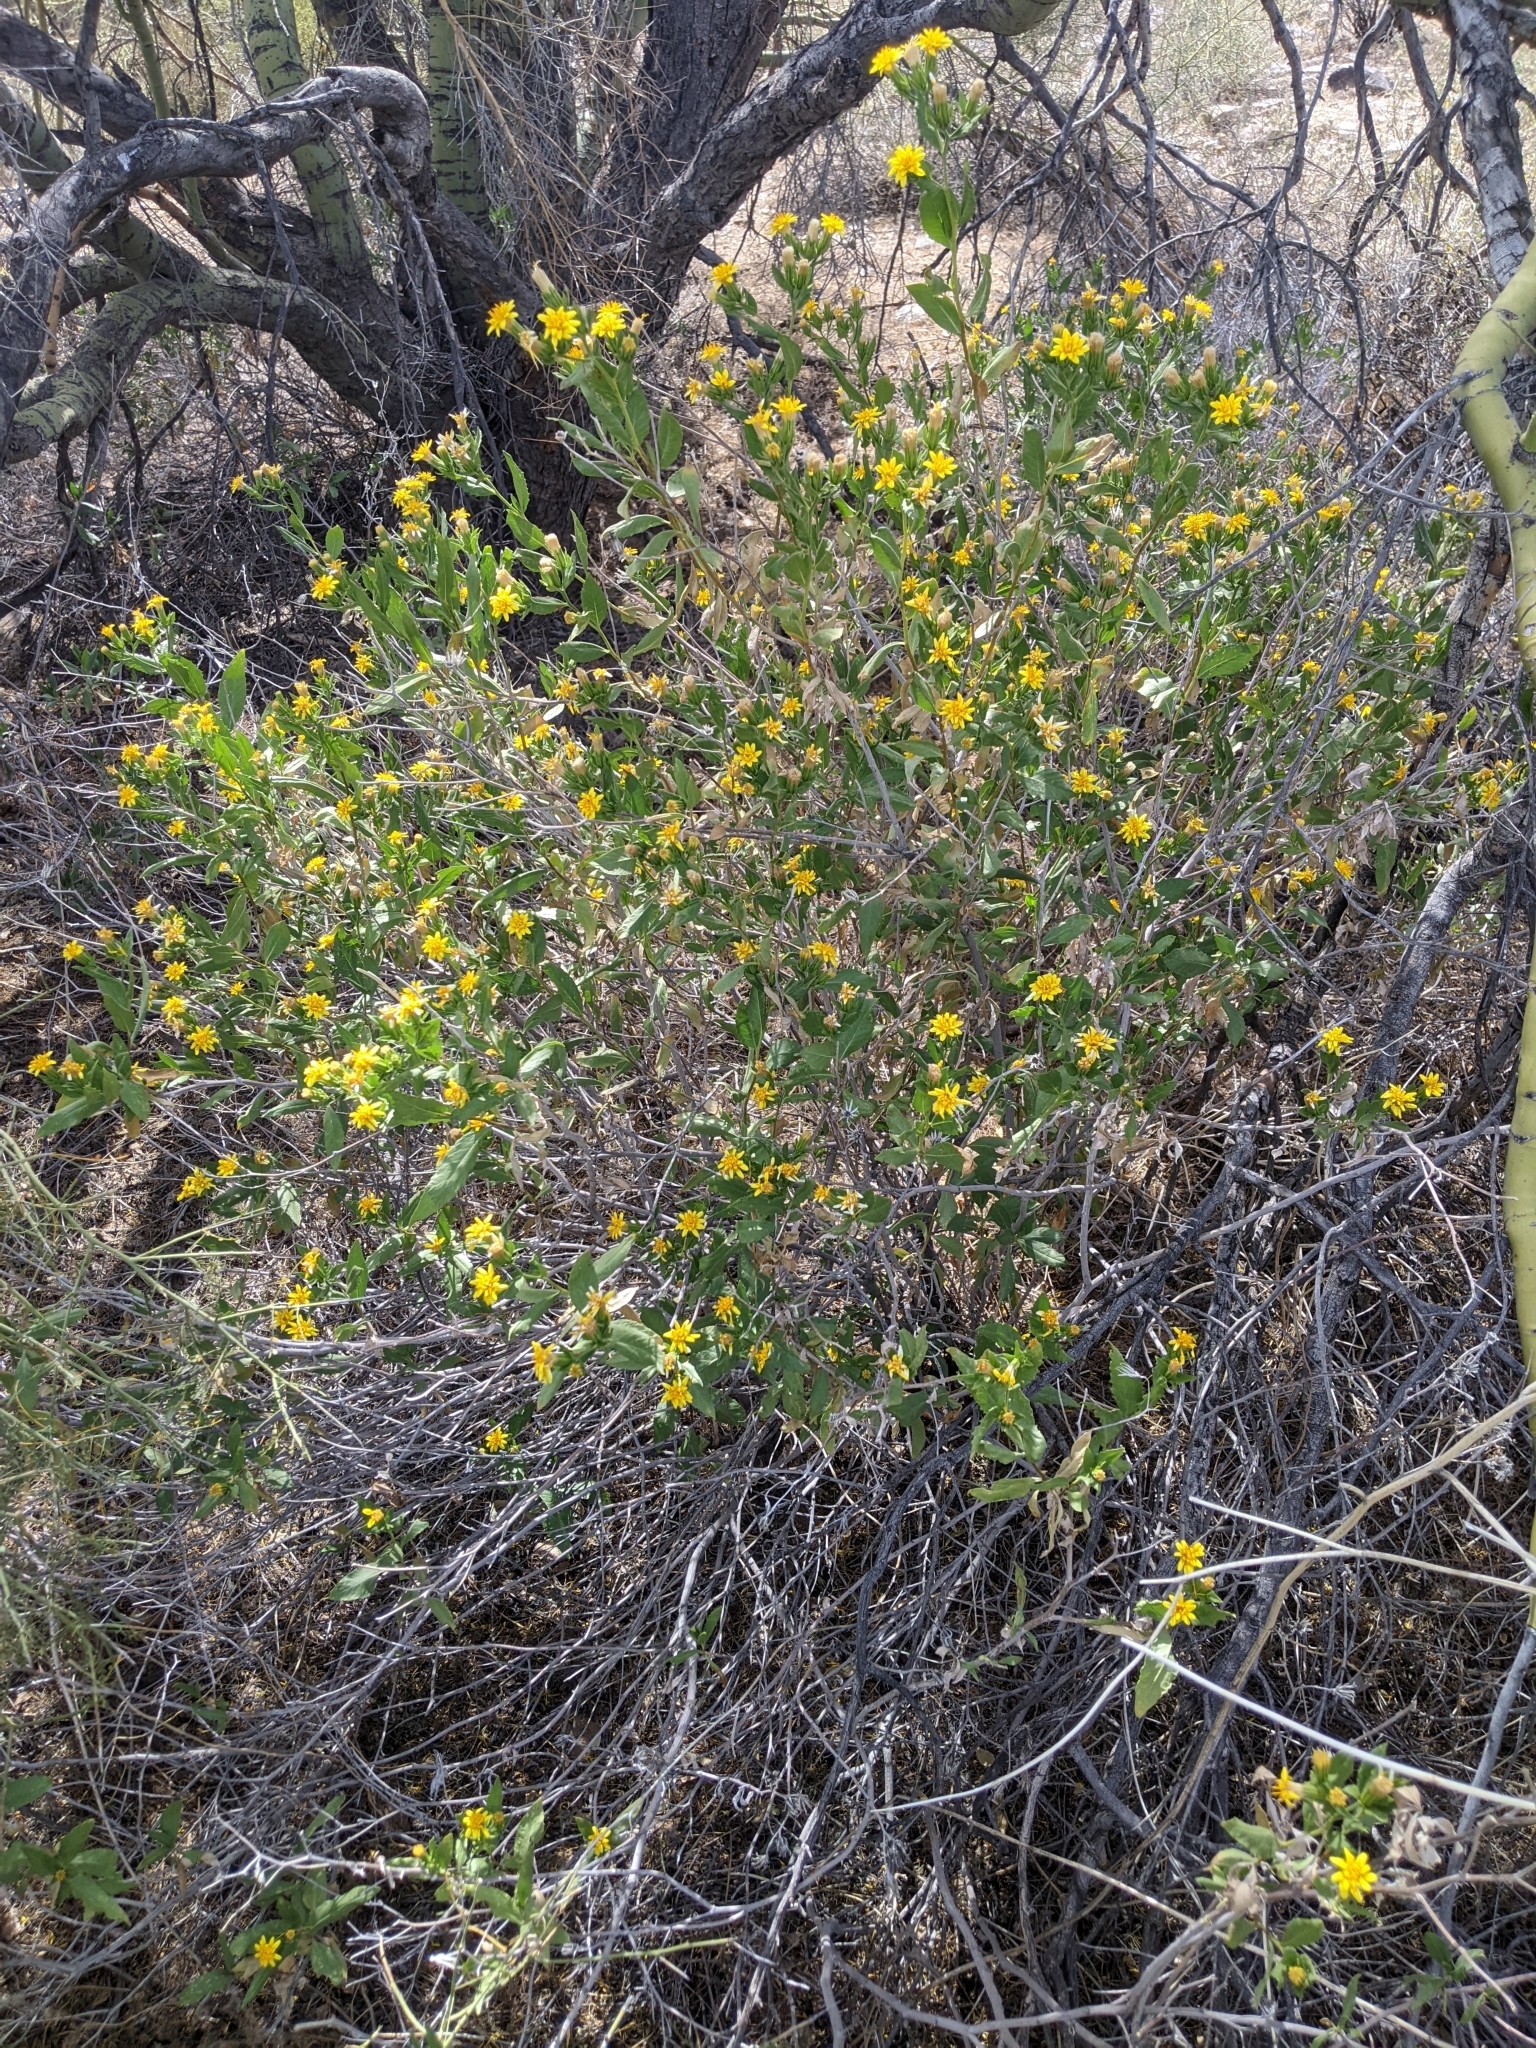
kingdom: Plantae
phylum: Tracheophyta
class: Magnoliopsida
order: Asterales
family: Asteraceae
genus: Trixis
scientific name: Trixis californica
